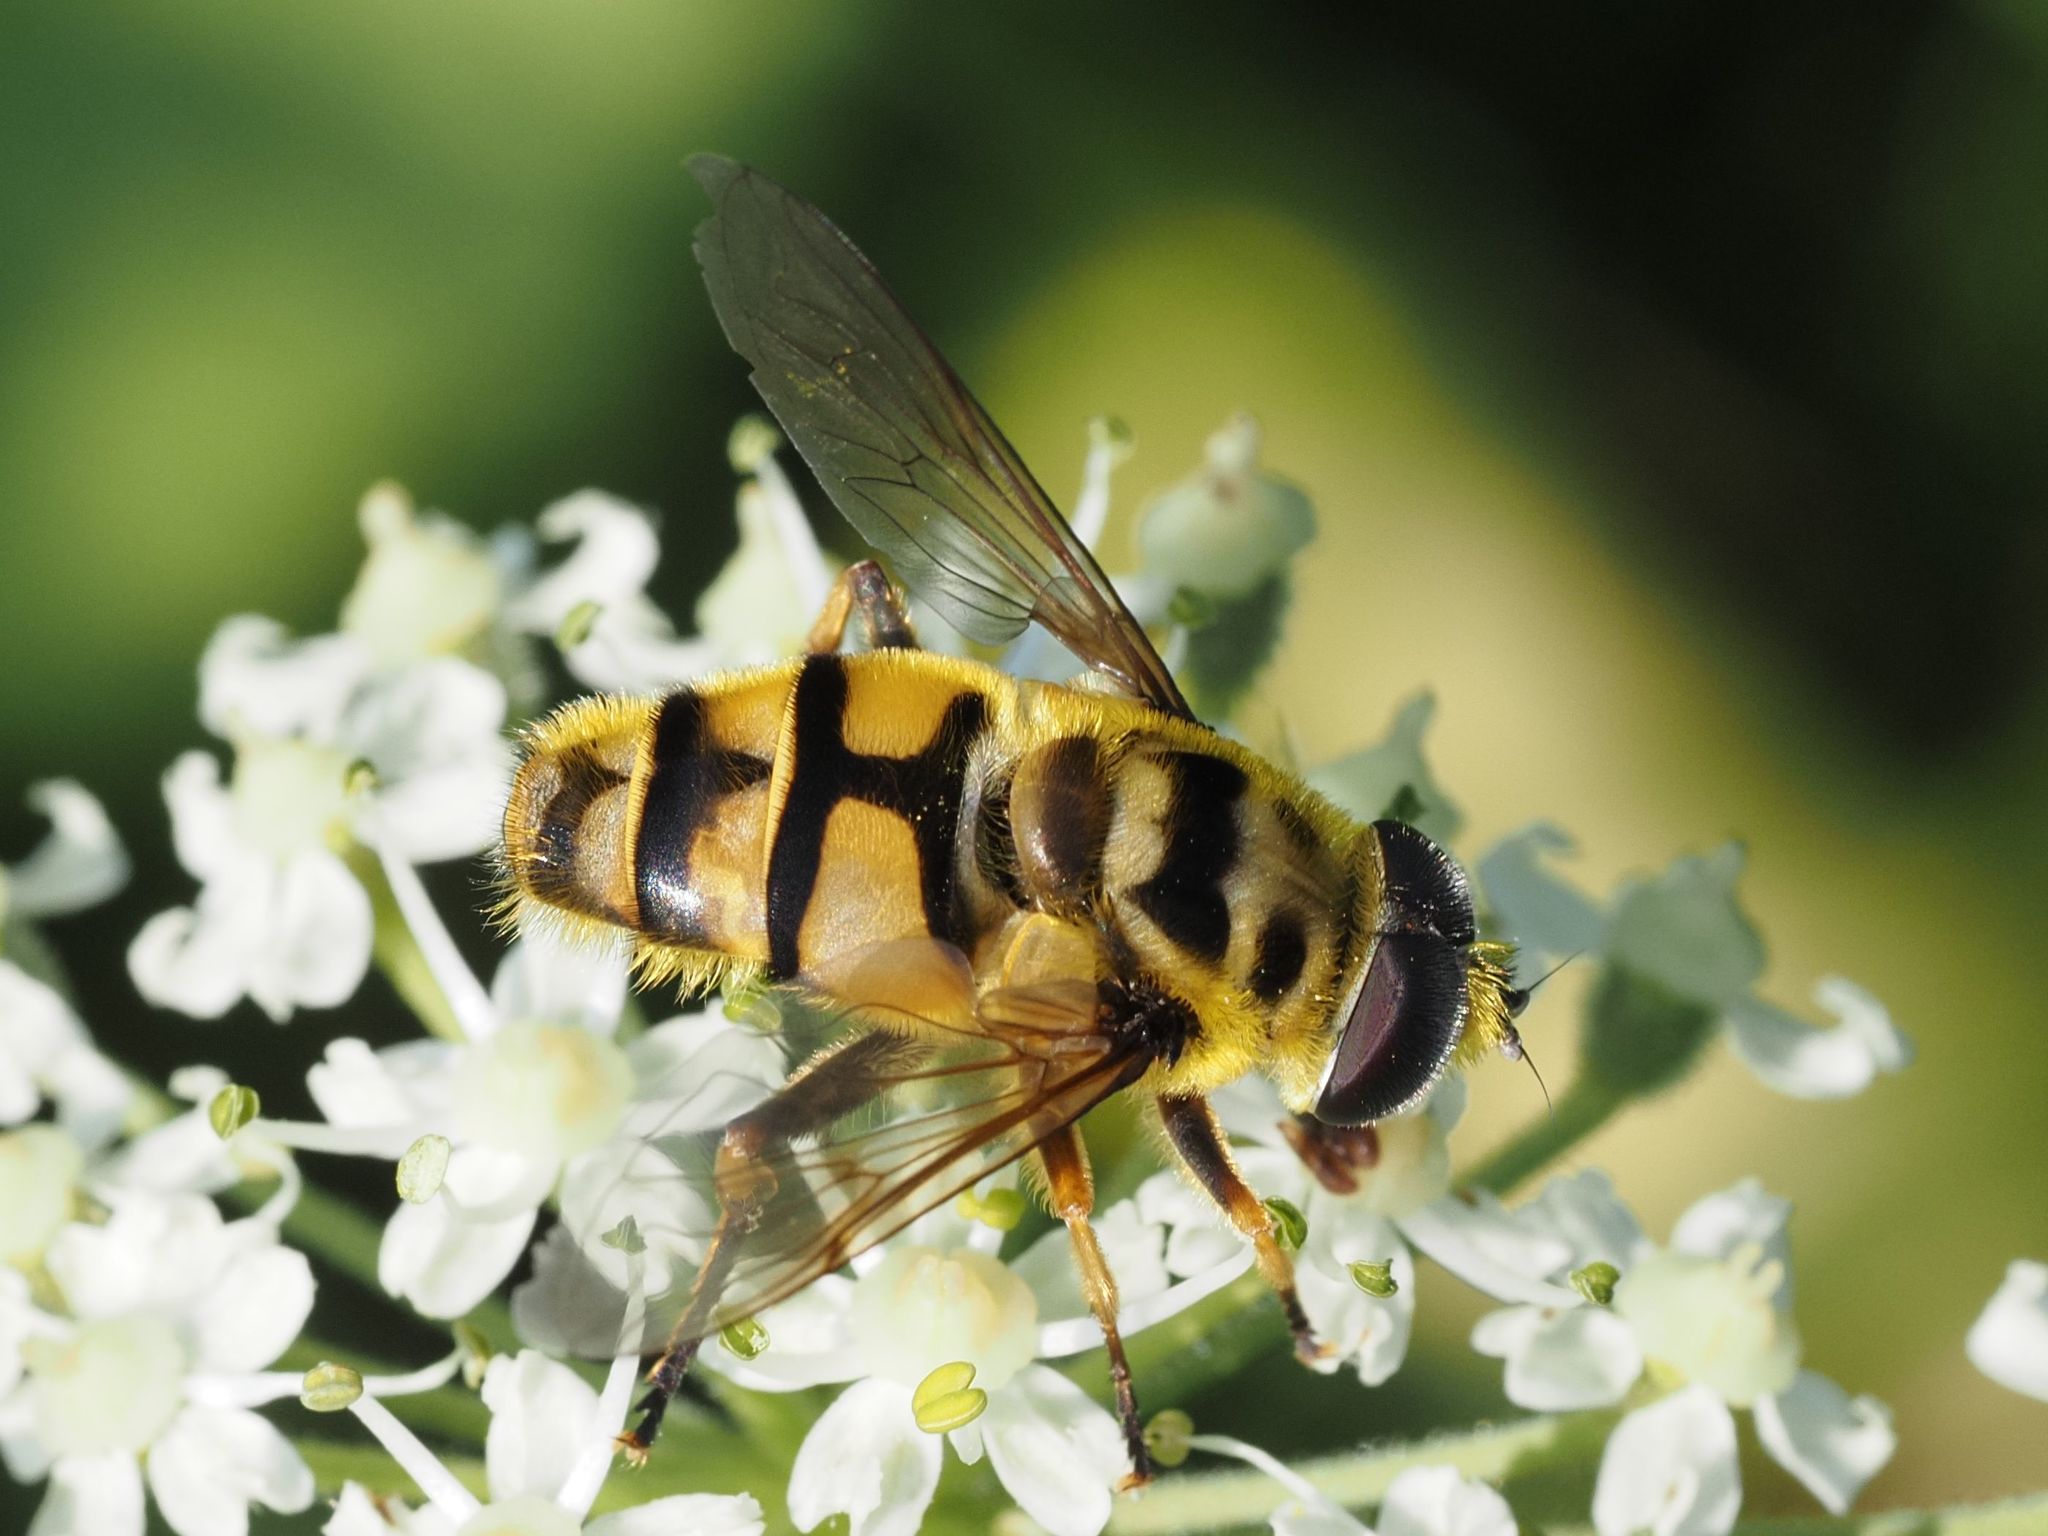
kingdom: Animalia
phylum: Arthropoda
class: Insecta
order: Diptera
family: Syrphidae
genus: Myathropa
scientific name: Myathropa florea
